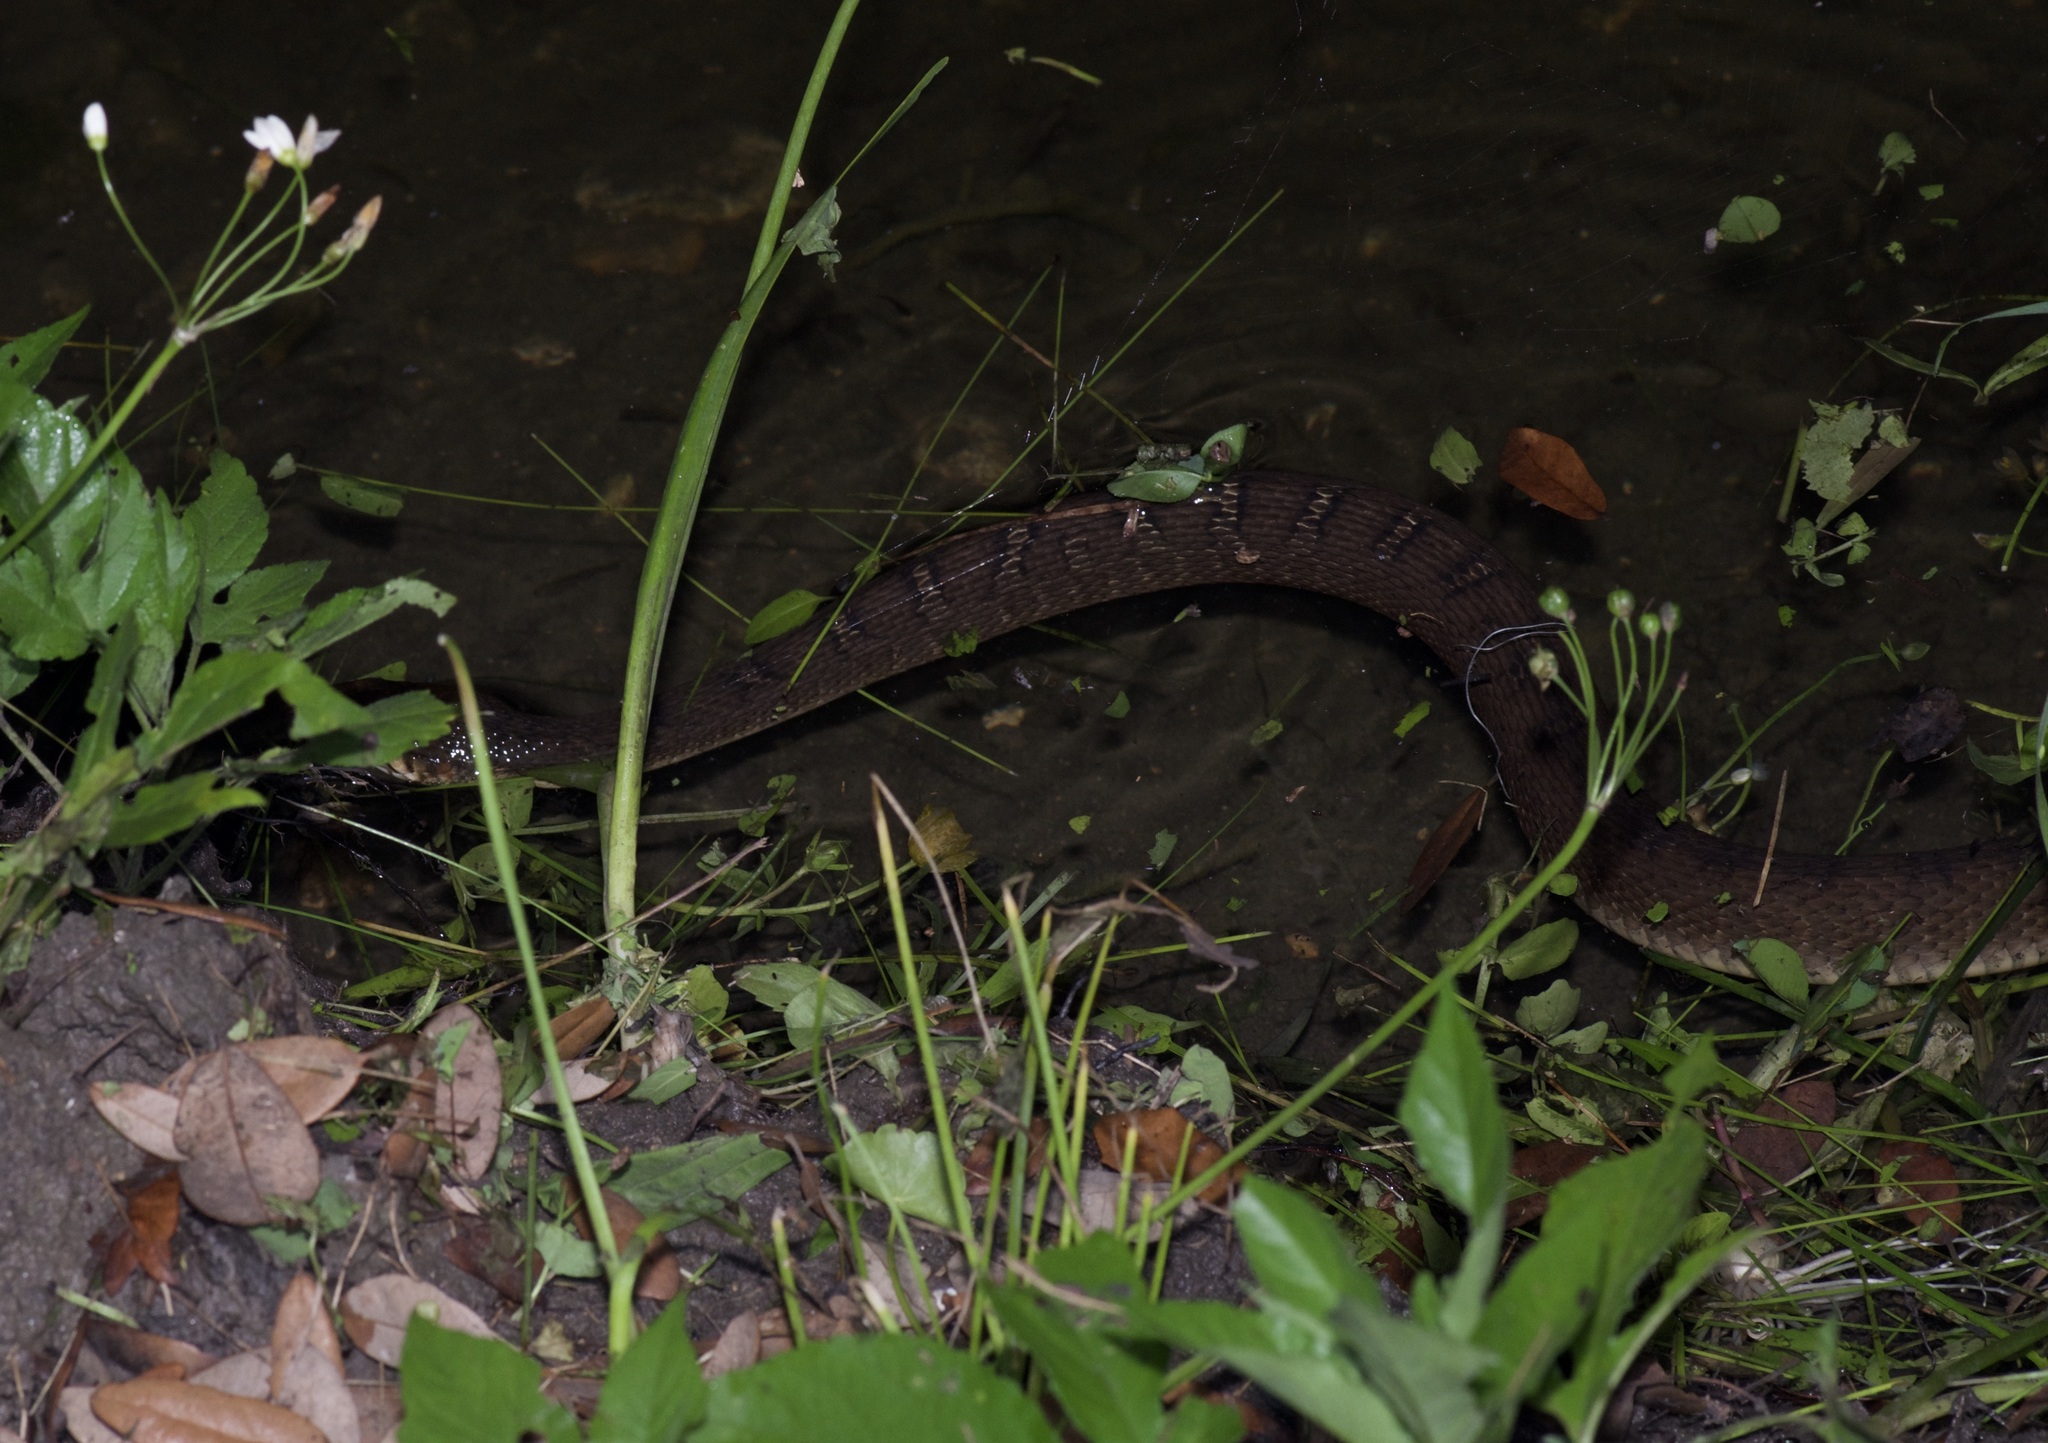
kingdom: Animalia
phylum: Chordata
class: Squamata
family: Colubridae
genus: Nerodia
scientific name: Nerodia erythrogaster
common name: Plainbelly water snake
